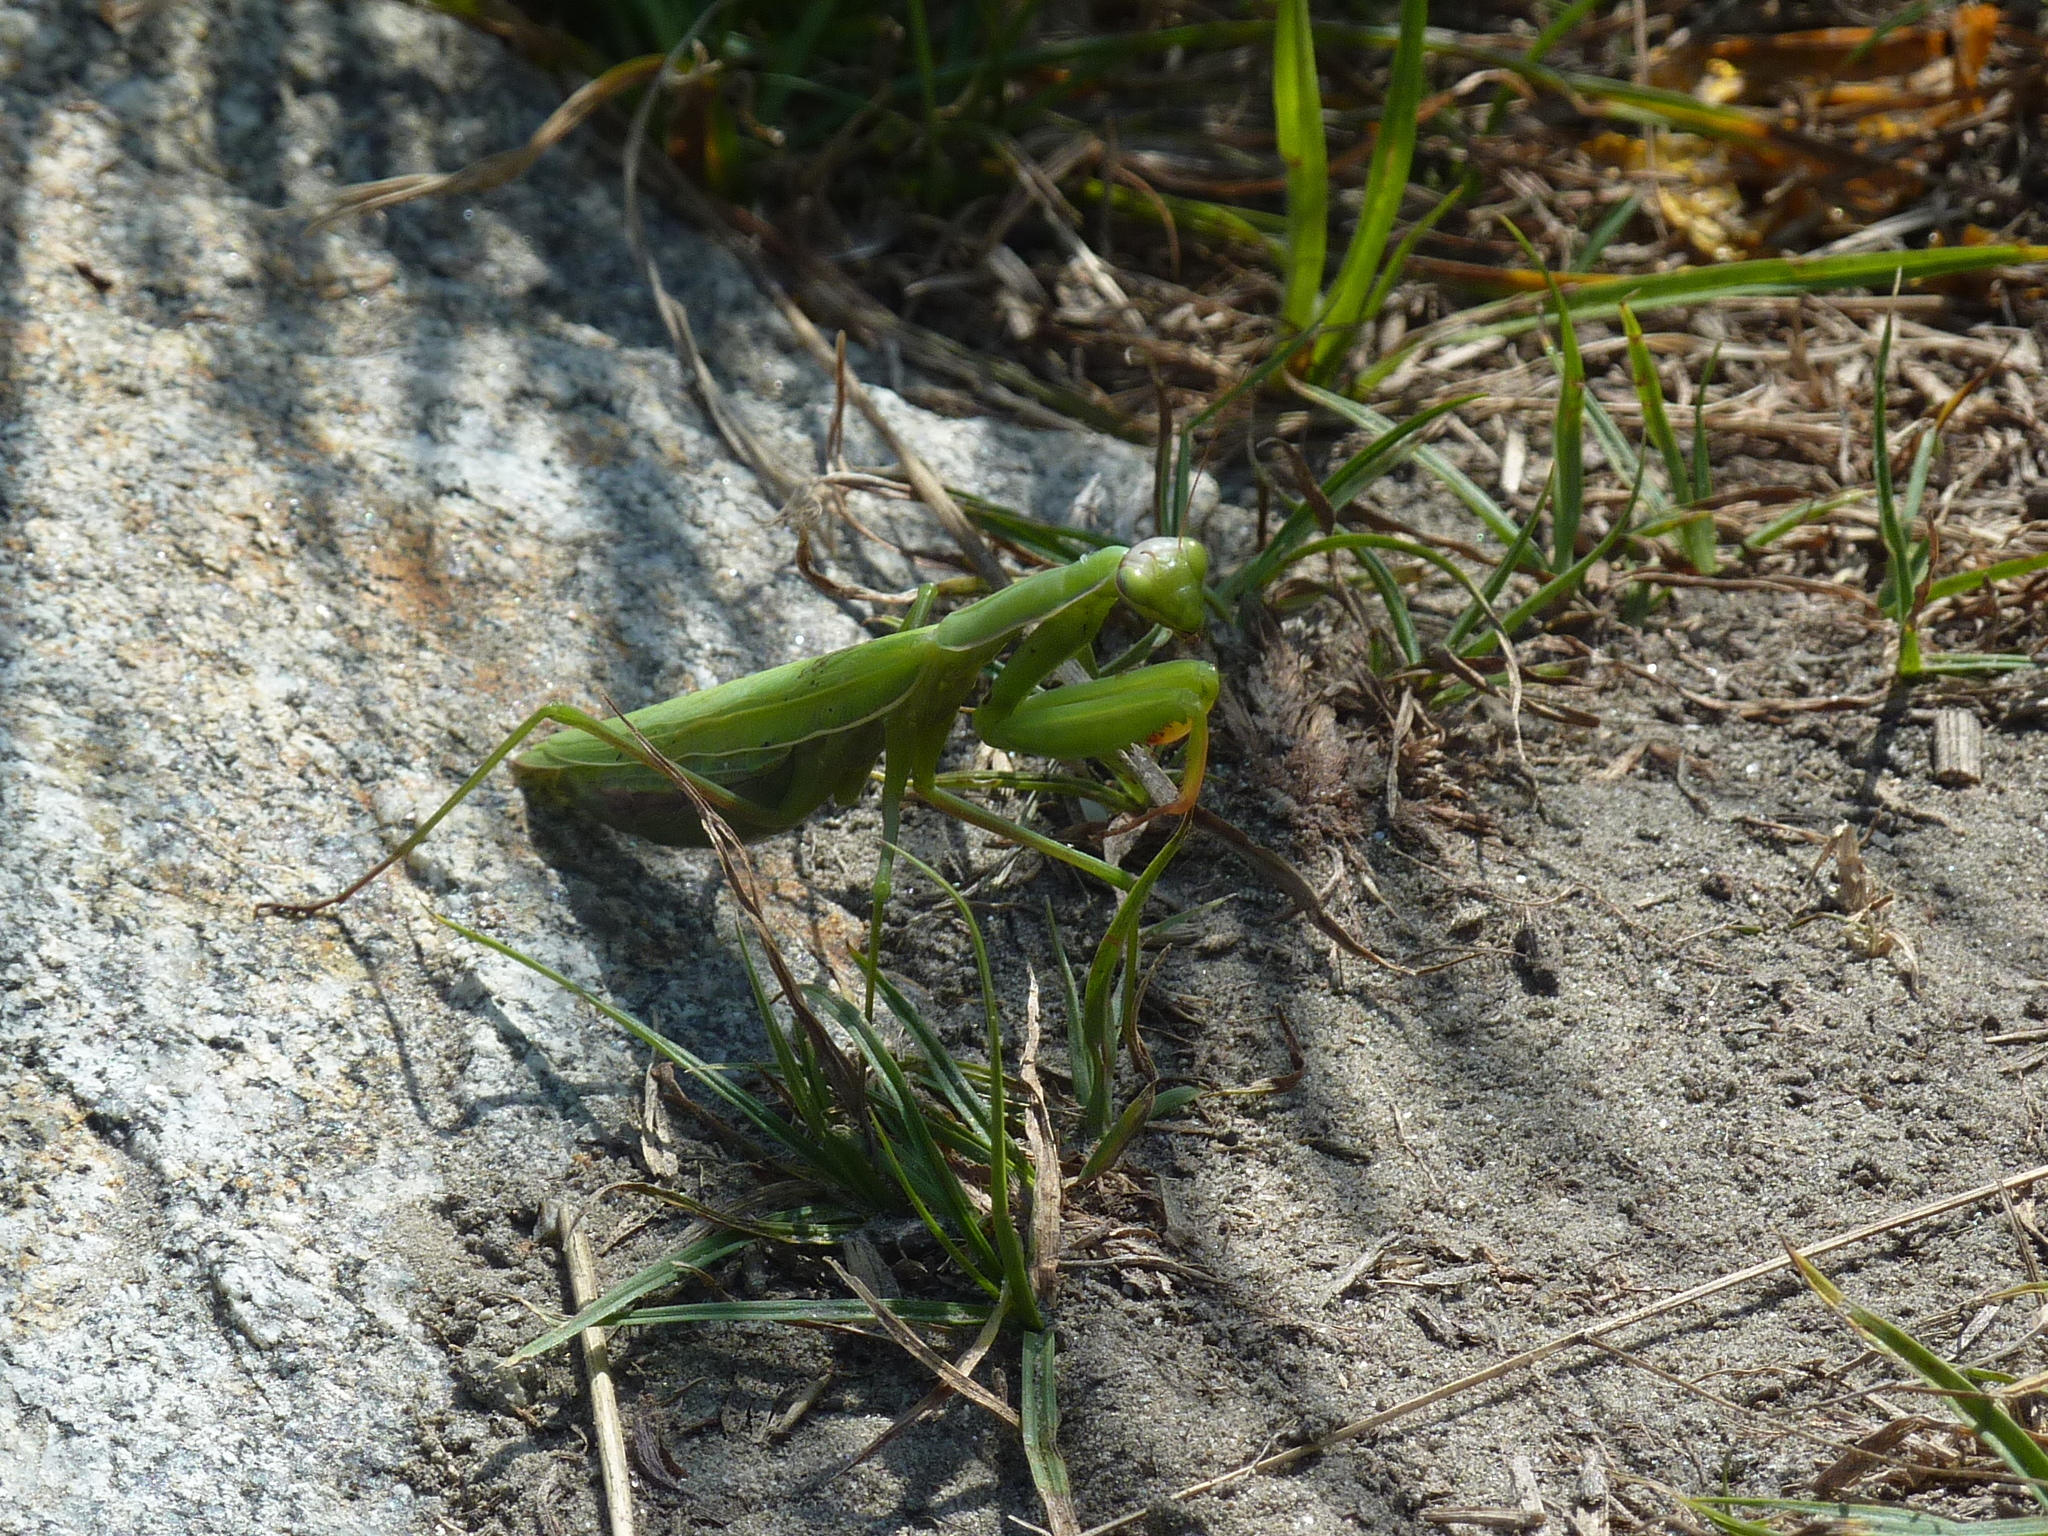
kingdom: Animalia
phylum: Arthropoda
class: Insecta
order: Mantodea
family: Mantidae
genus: Mantis
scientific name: Mantis religiosa
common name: Praying mantis
